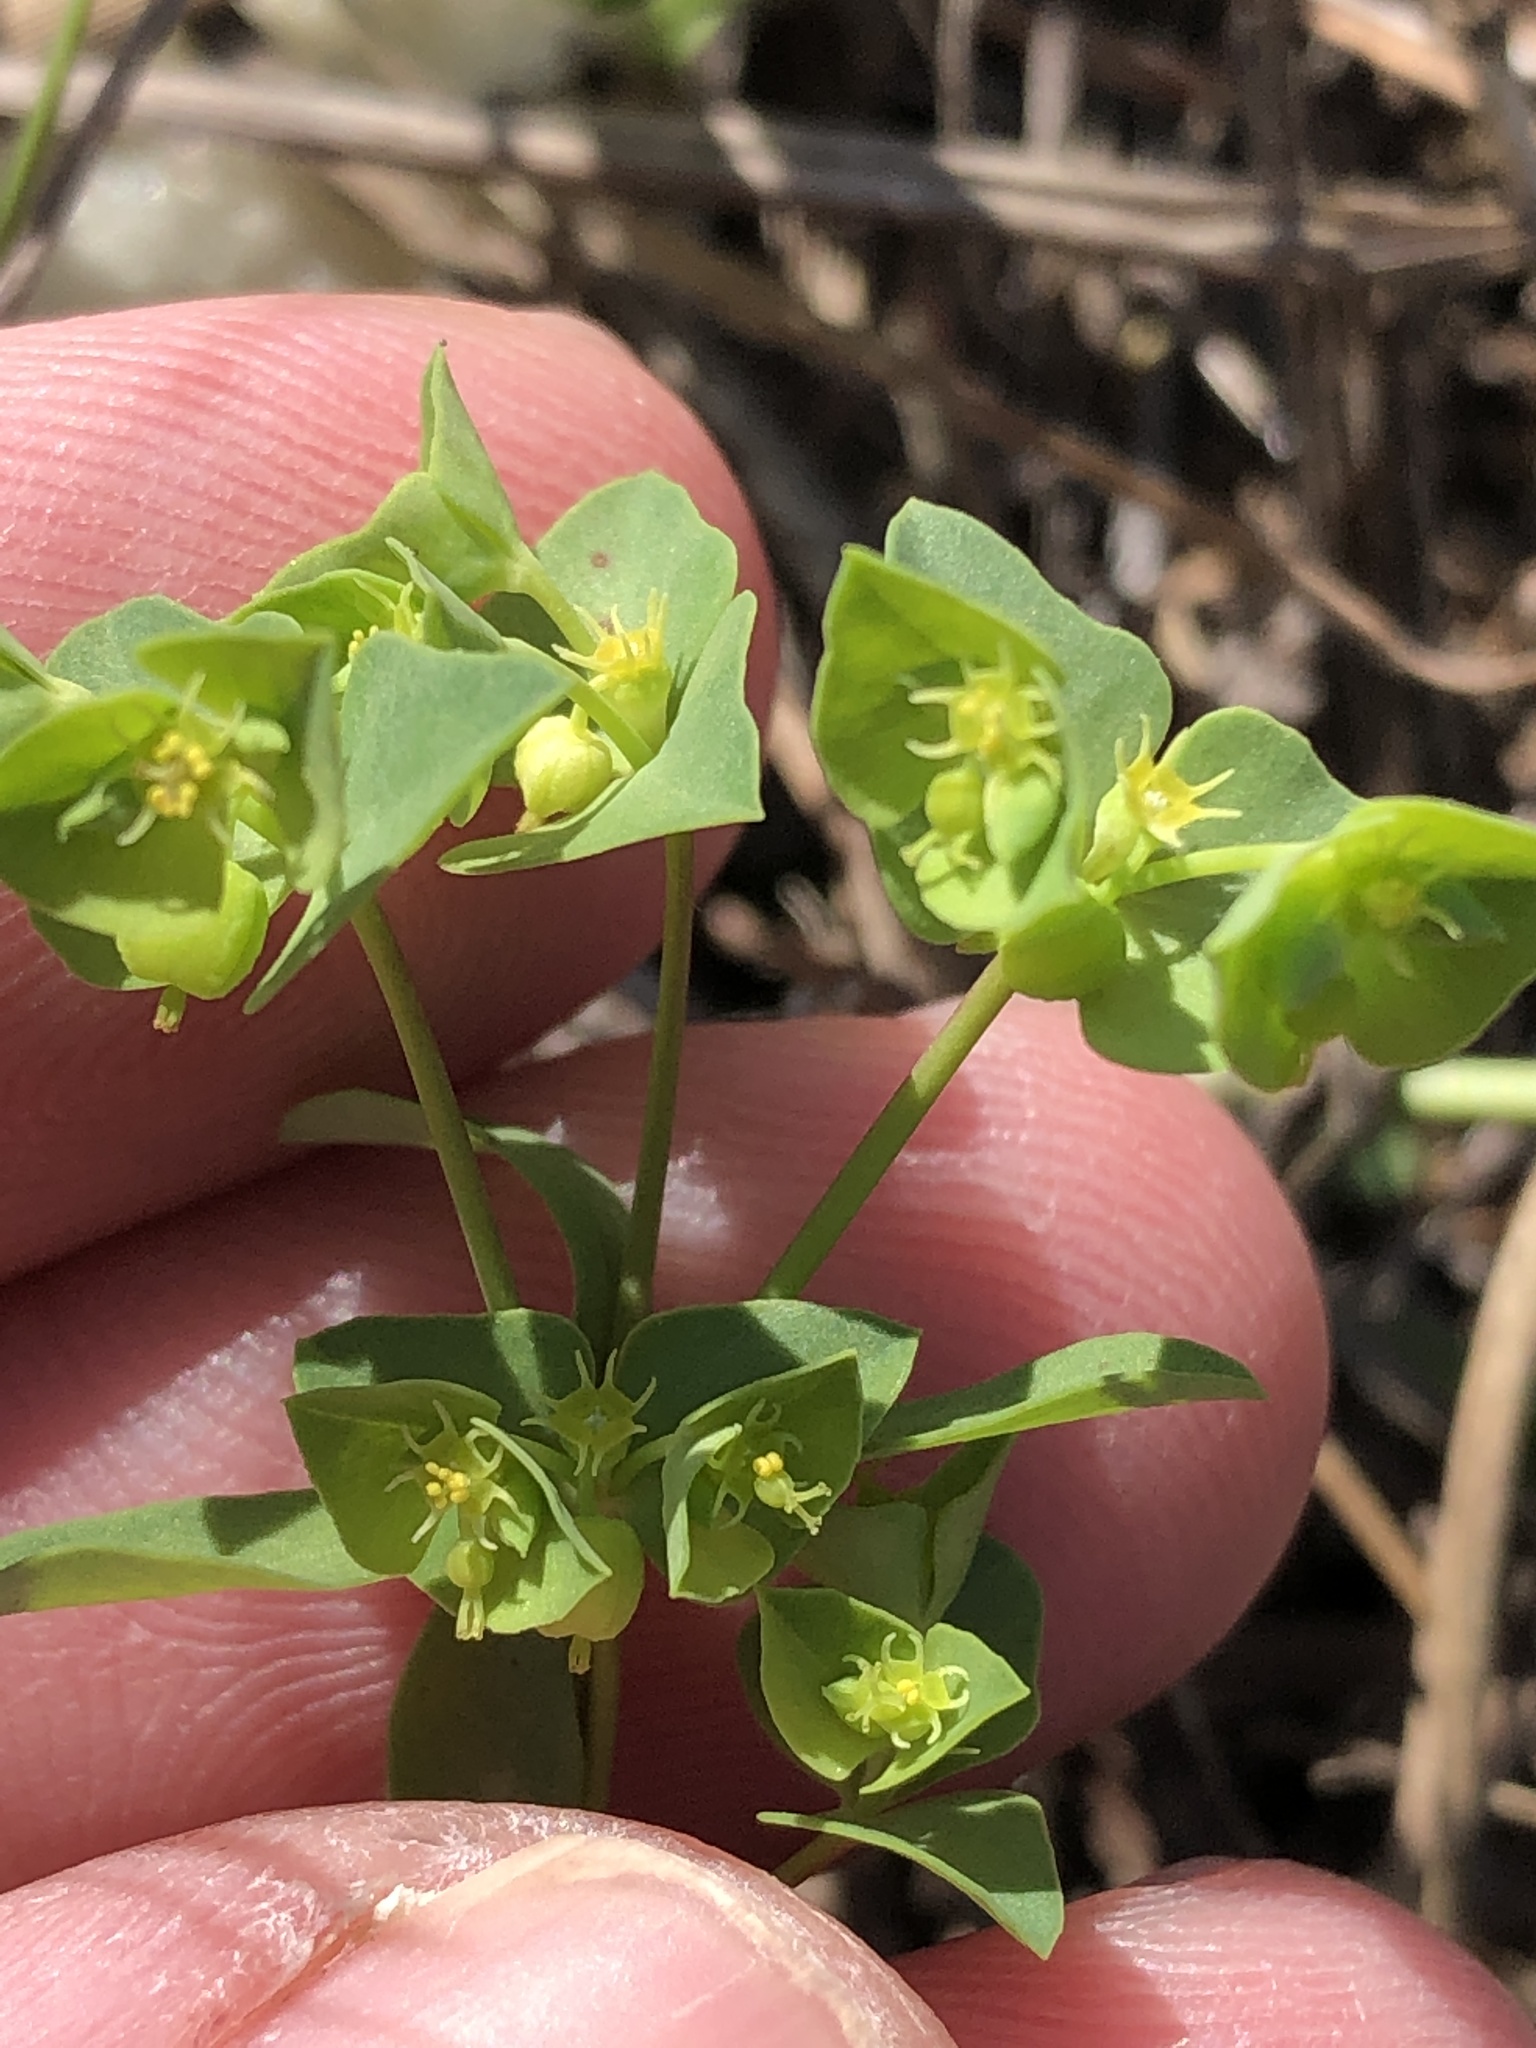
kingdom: Plantae
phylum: Tracheophyta
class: Magnoliopsida
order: Malpighiales
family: Euphorbiaceae
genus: Euphorbia
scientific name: Euphorbia tetrapora
